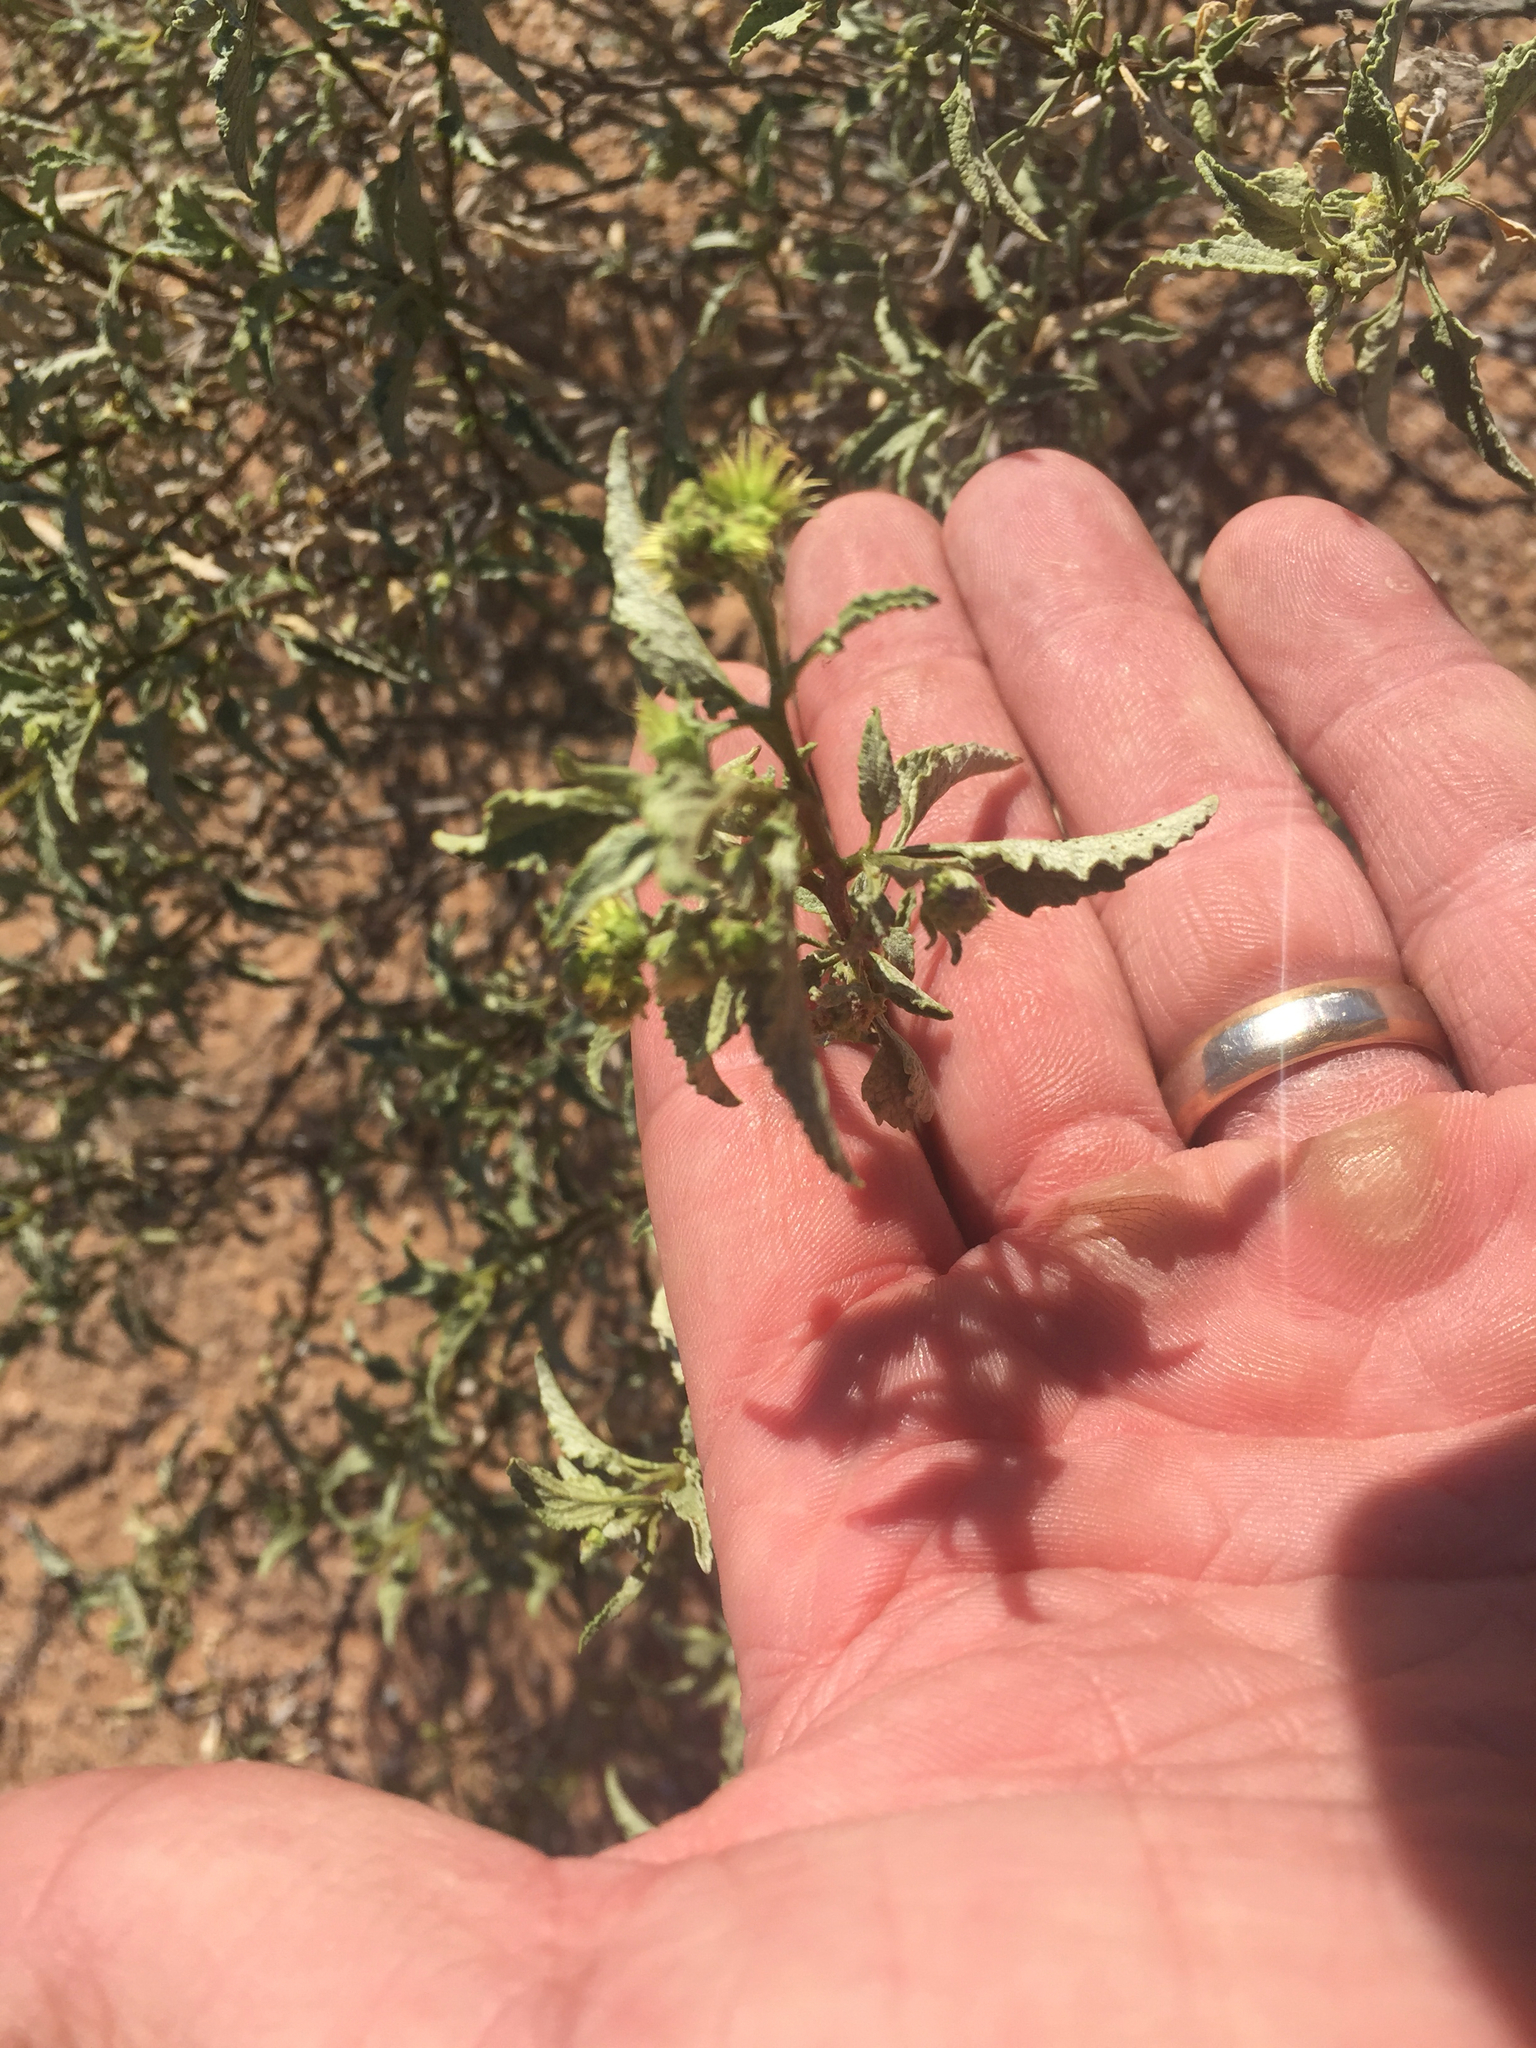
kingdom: Plantae
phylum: Tracheophyta
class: Magnoliopsida
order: Asterales
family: Asteraceae
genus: Ambrosia
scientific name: Ambrosia deltoidea
